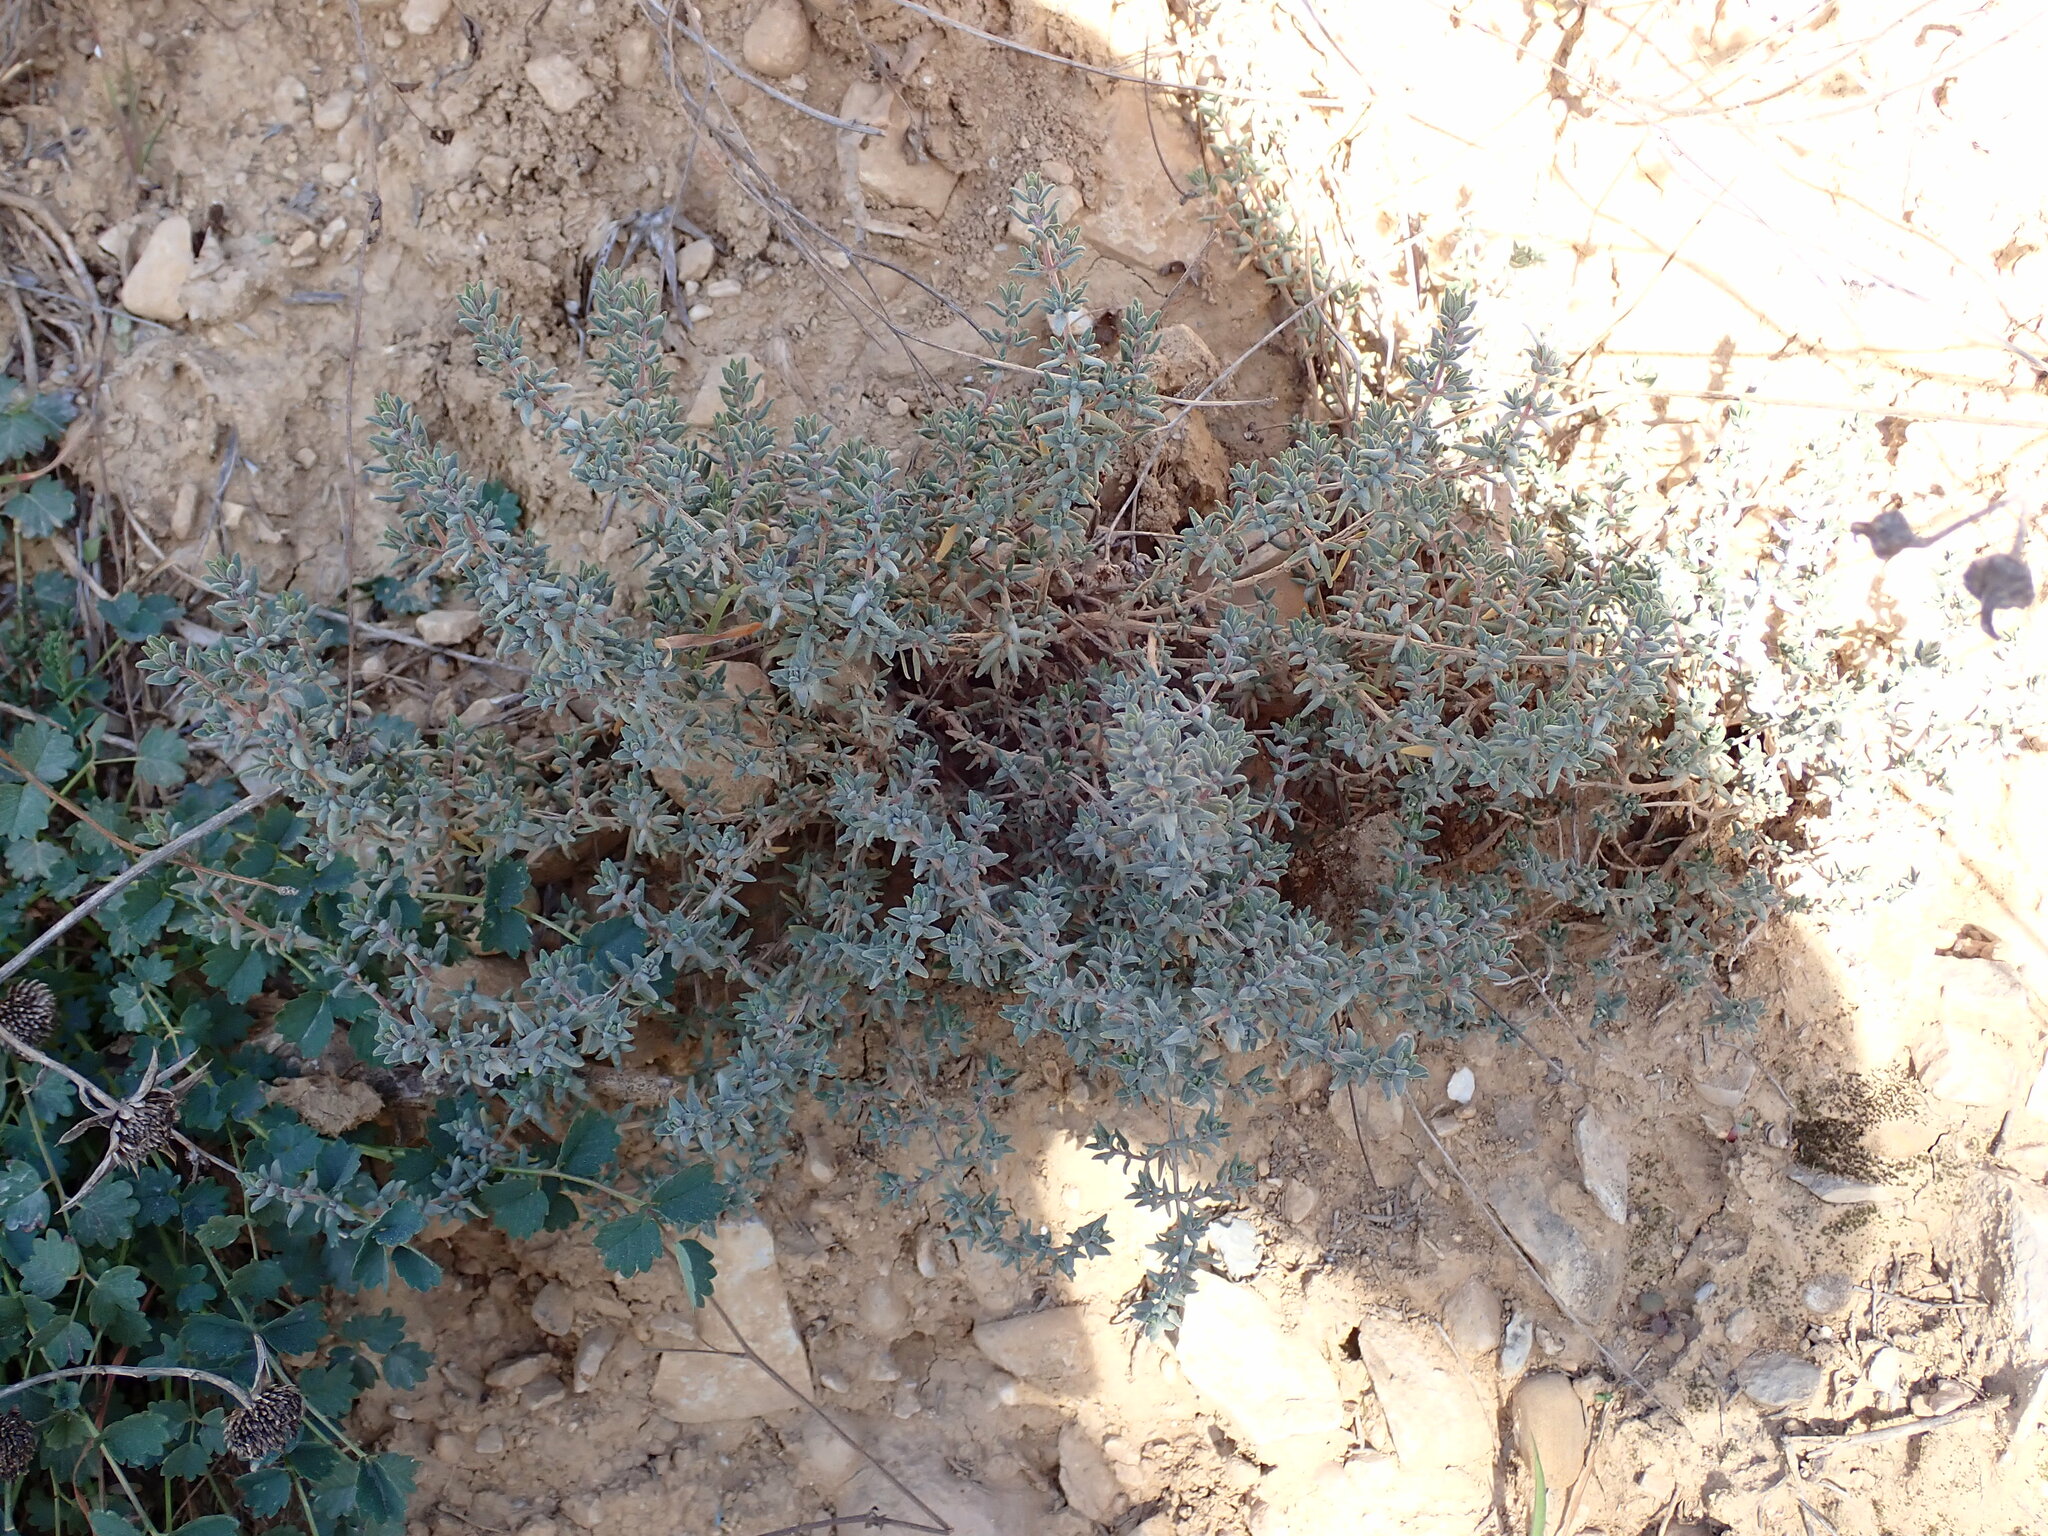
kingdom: Plantae
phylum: Tracheophyta
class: Magnoliopsida
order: Lamiales
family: Lamiaceae
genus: Thymus
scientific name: Thymus vulgaris
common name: Garden thyme
